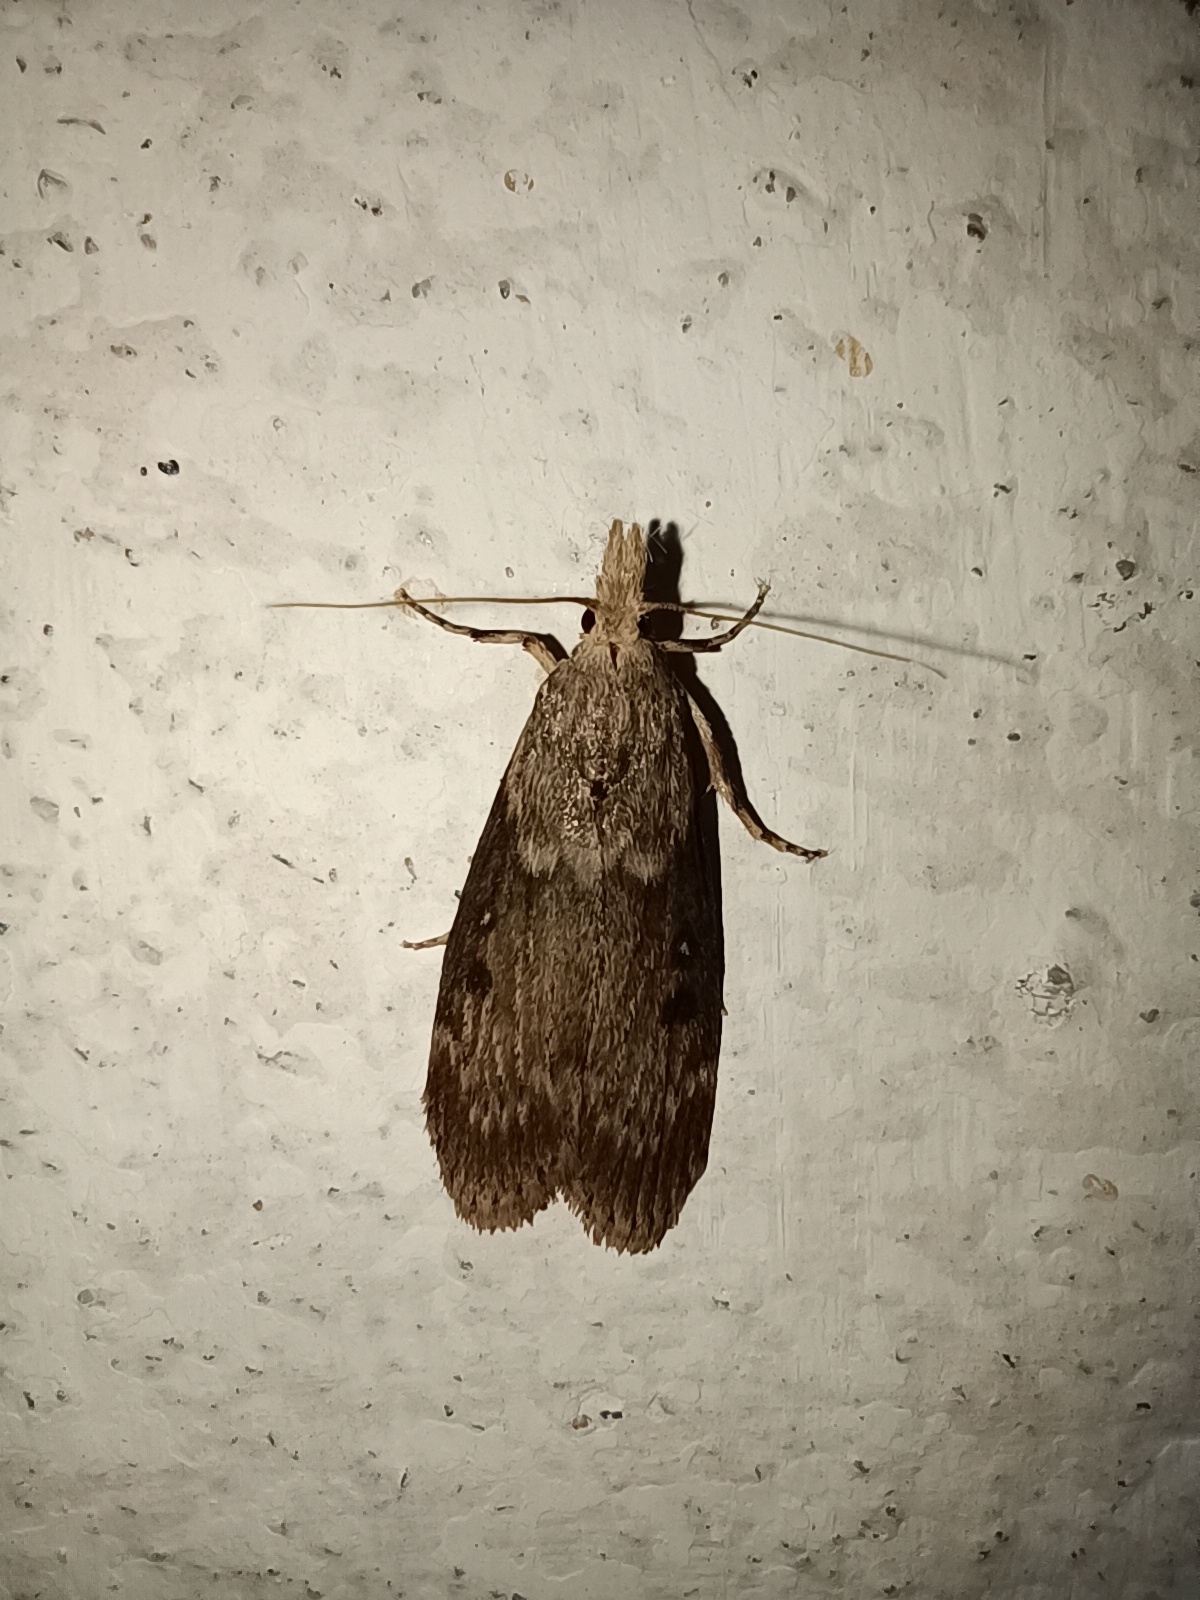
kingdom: Animalia
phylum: Arthropoda
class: Insecta
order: Lepidoptera
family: Pyralidae
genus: Lamoria
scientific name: Lamoria anella
